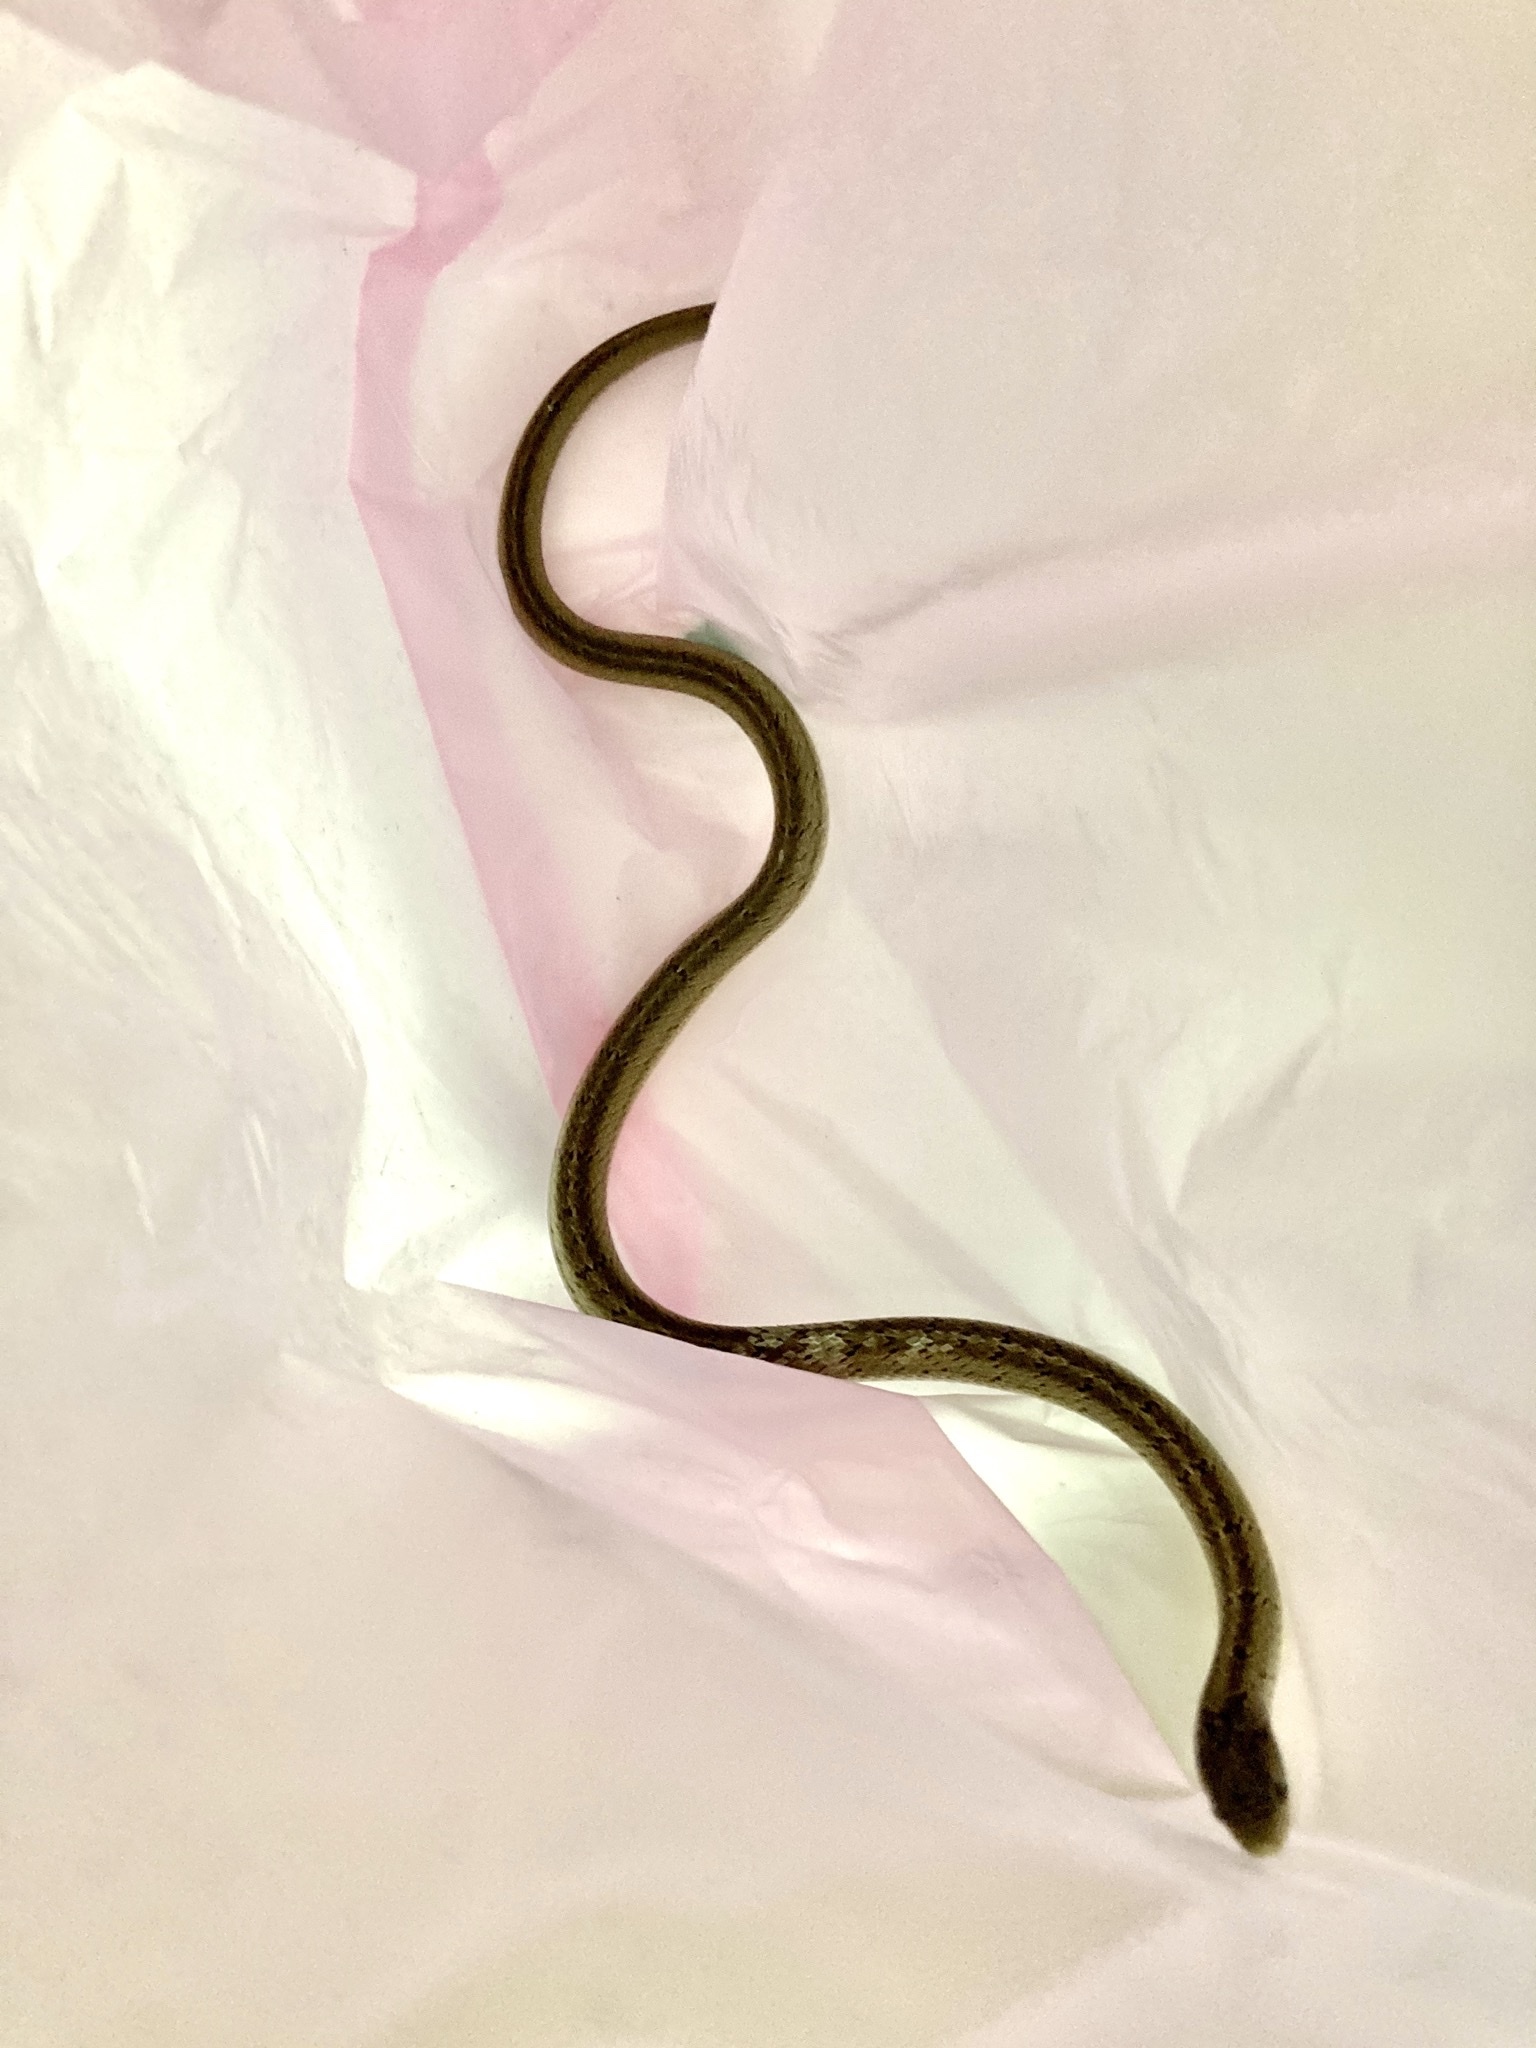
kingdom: Animalia
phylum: Chordata
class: Squamata
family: Colubridae
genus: Oligodon
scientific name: Oligodon formosanus
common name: Formosa kukri snake
